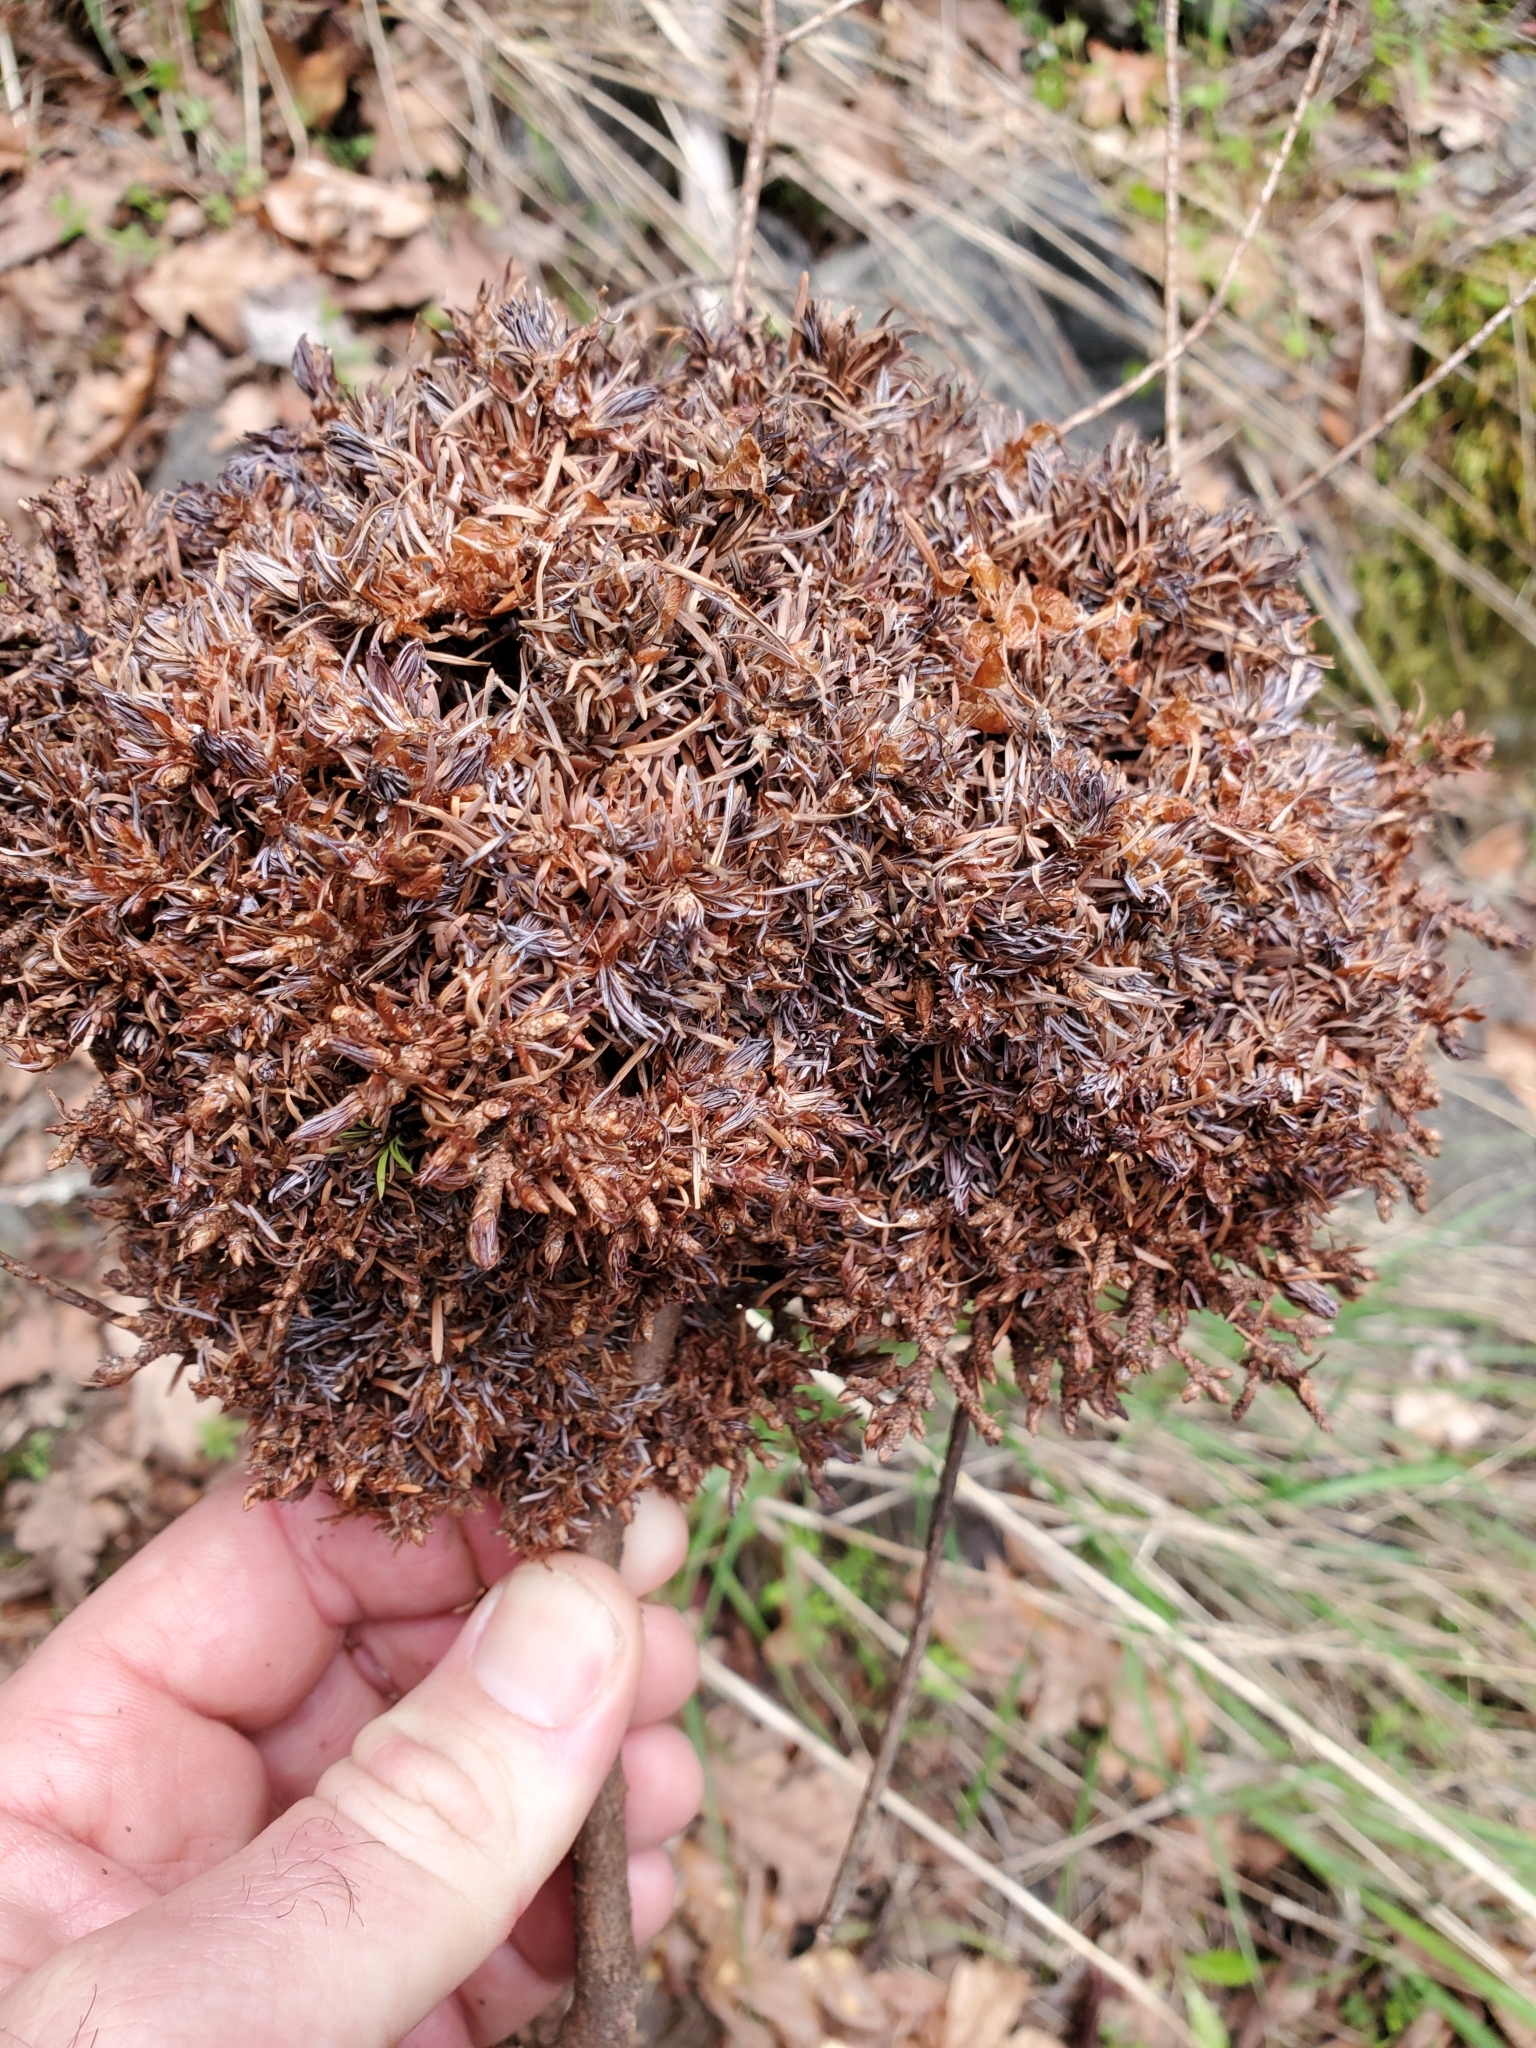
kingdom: Plantae
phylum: Tracheophyta
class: Magnoliopsida
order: Santalales
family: Viscaceae
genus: Arceuthobium
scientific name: Arceuthobium douglasii
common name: Douglas' dwarf mistletoe
